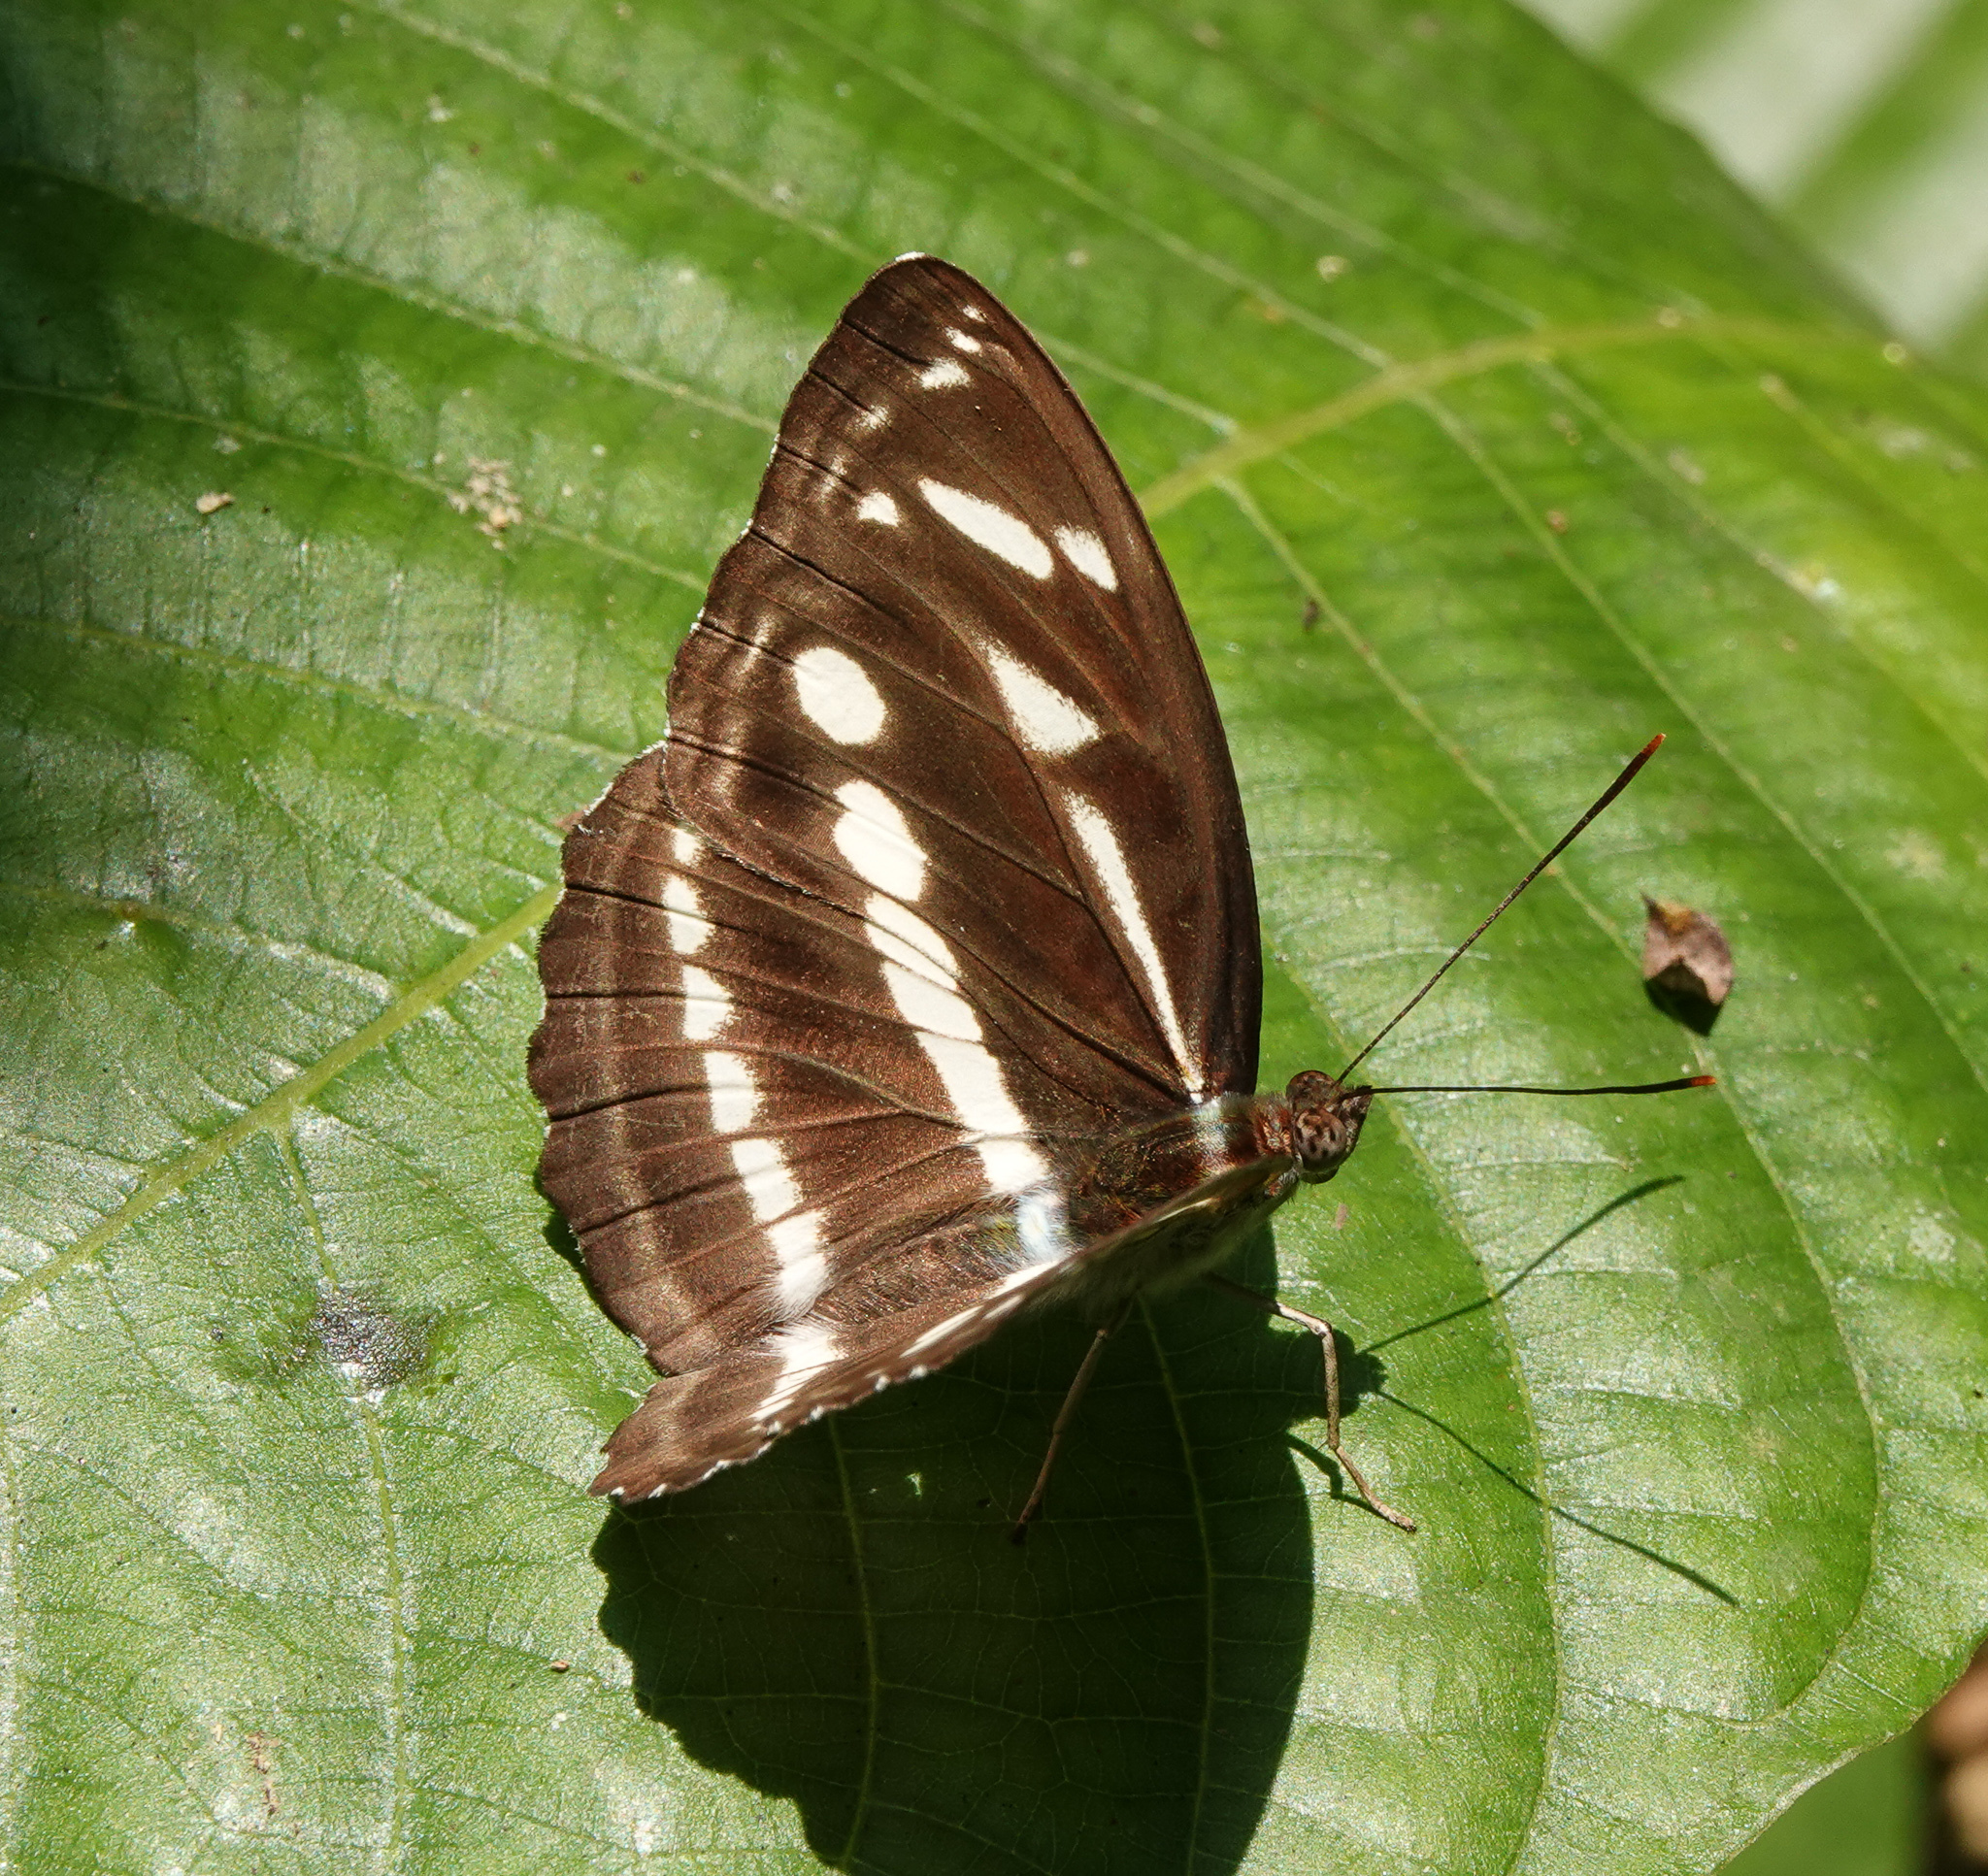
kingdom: Animalia
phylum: Arthropoda
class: Insecta
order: Lepidoptera
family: Nymphalidae
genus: Parathyma
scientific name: Parathyma kanwa
